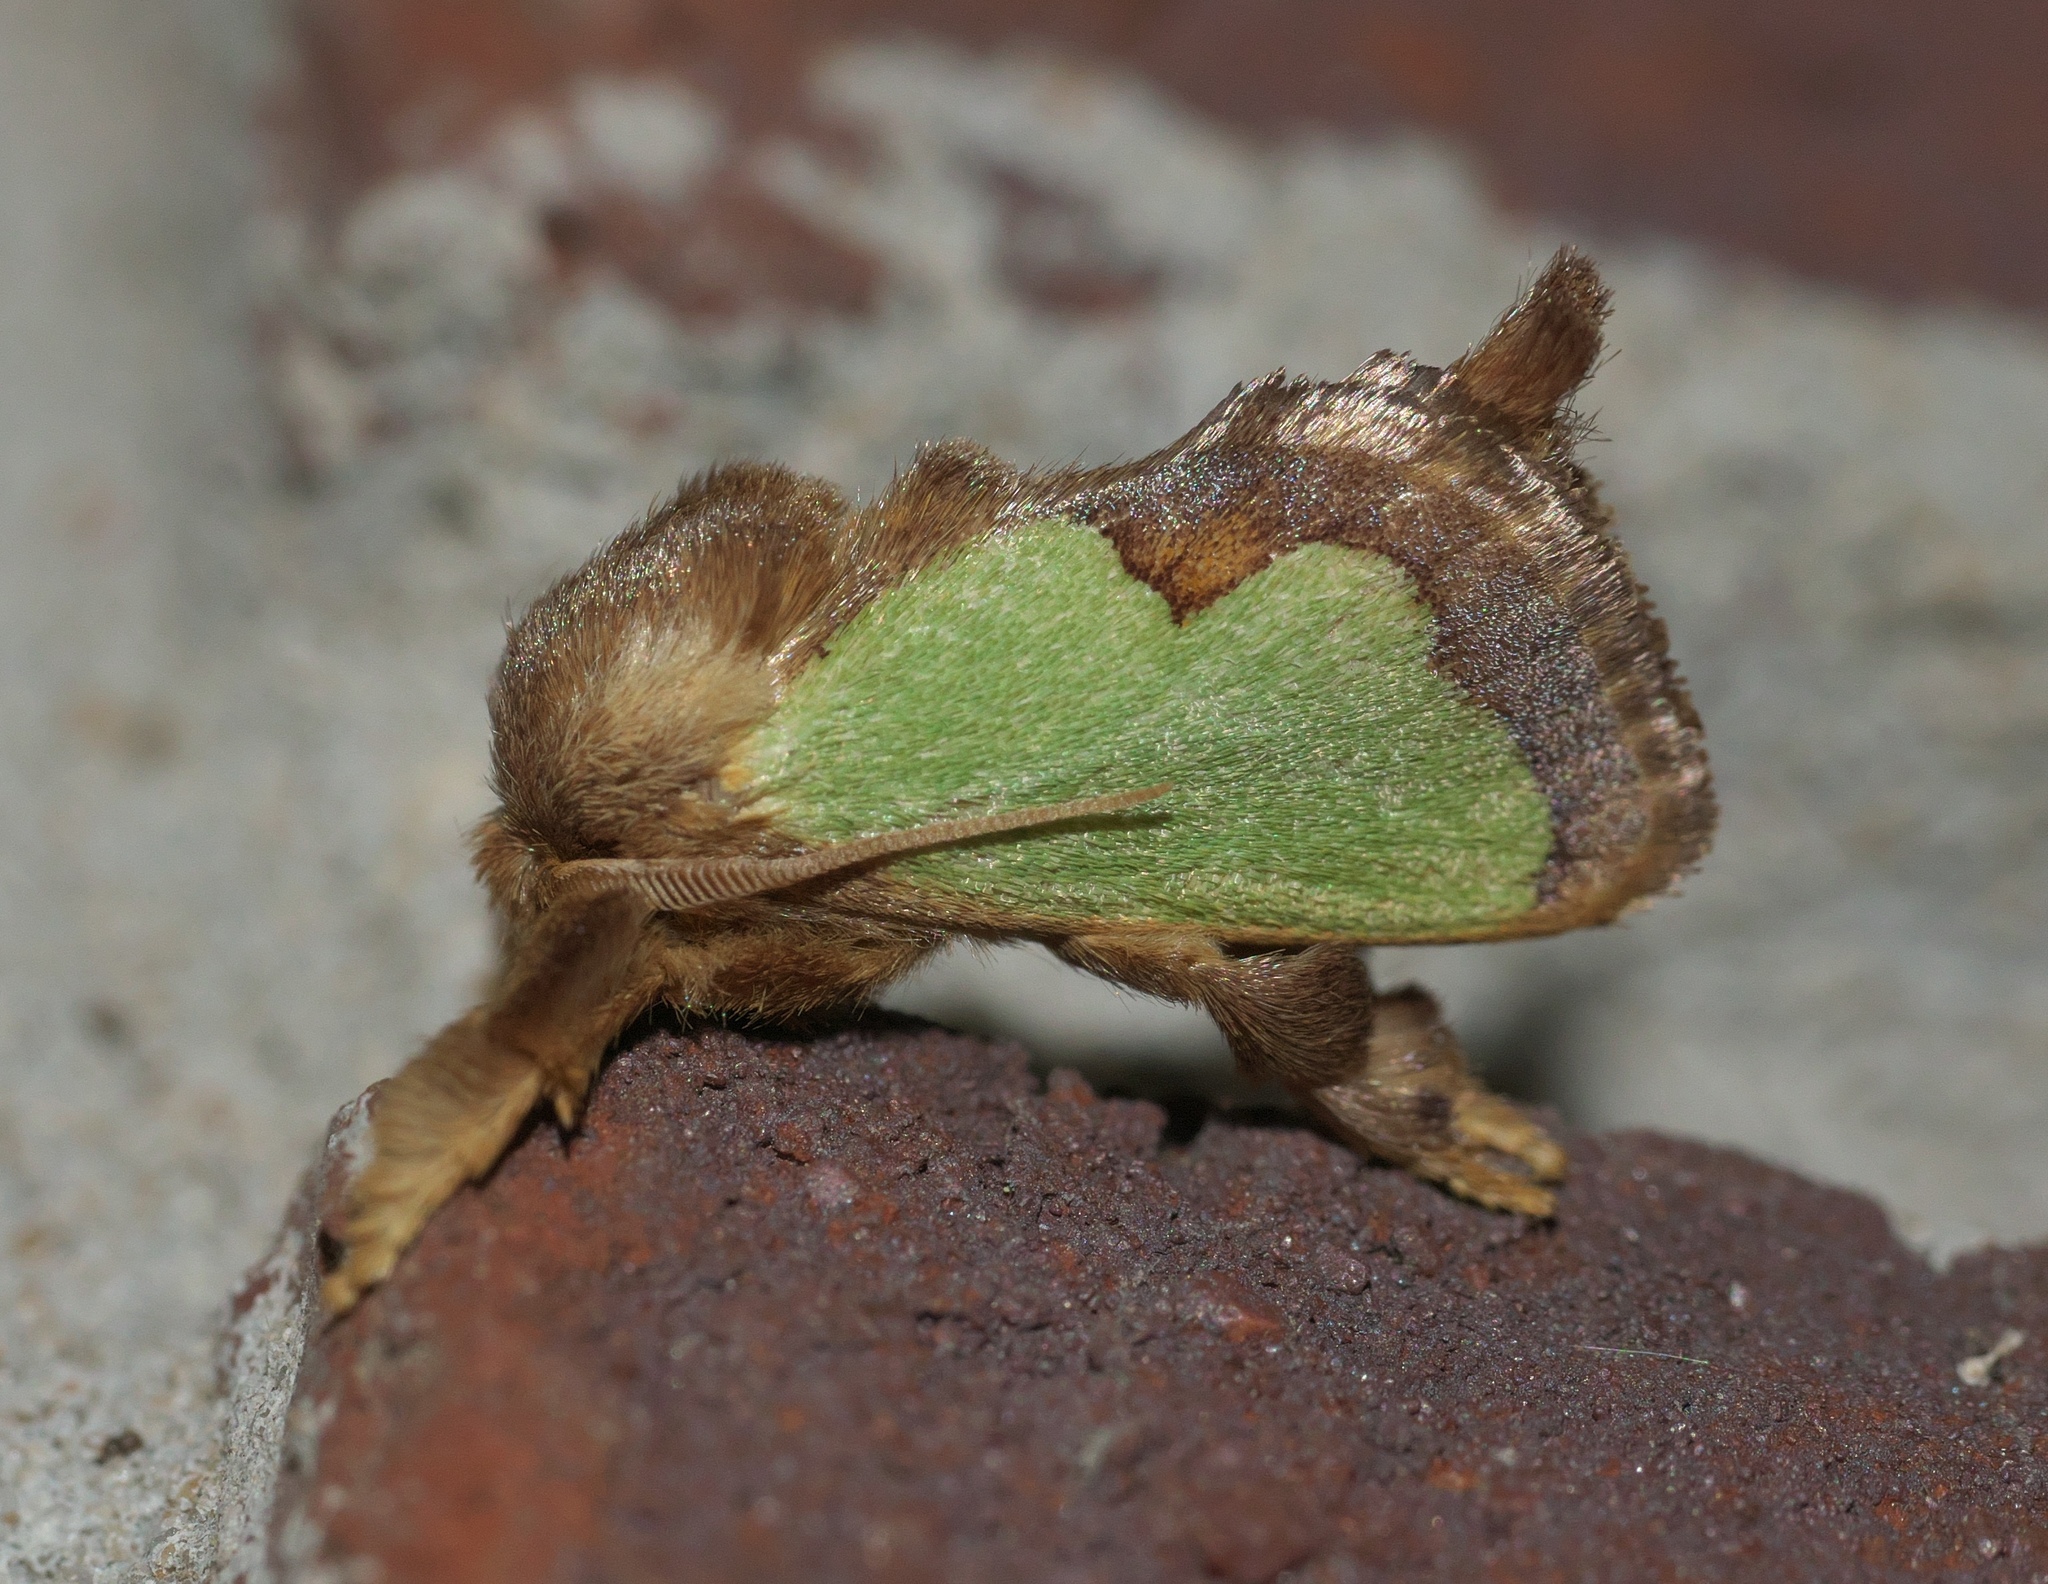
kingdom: Animalia
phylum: Arthropoda
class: Insecta
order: Lepidoptera
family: Limacodidae
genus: Euclea
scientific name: Euclea incisa
